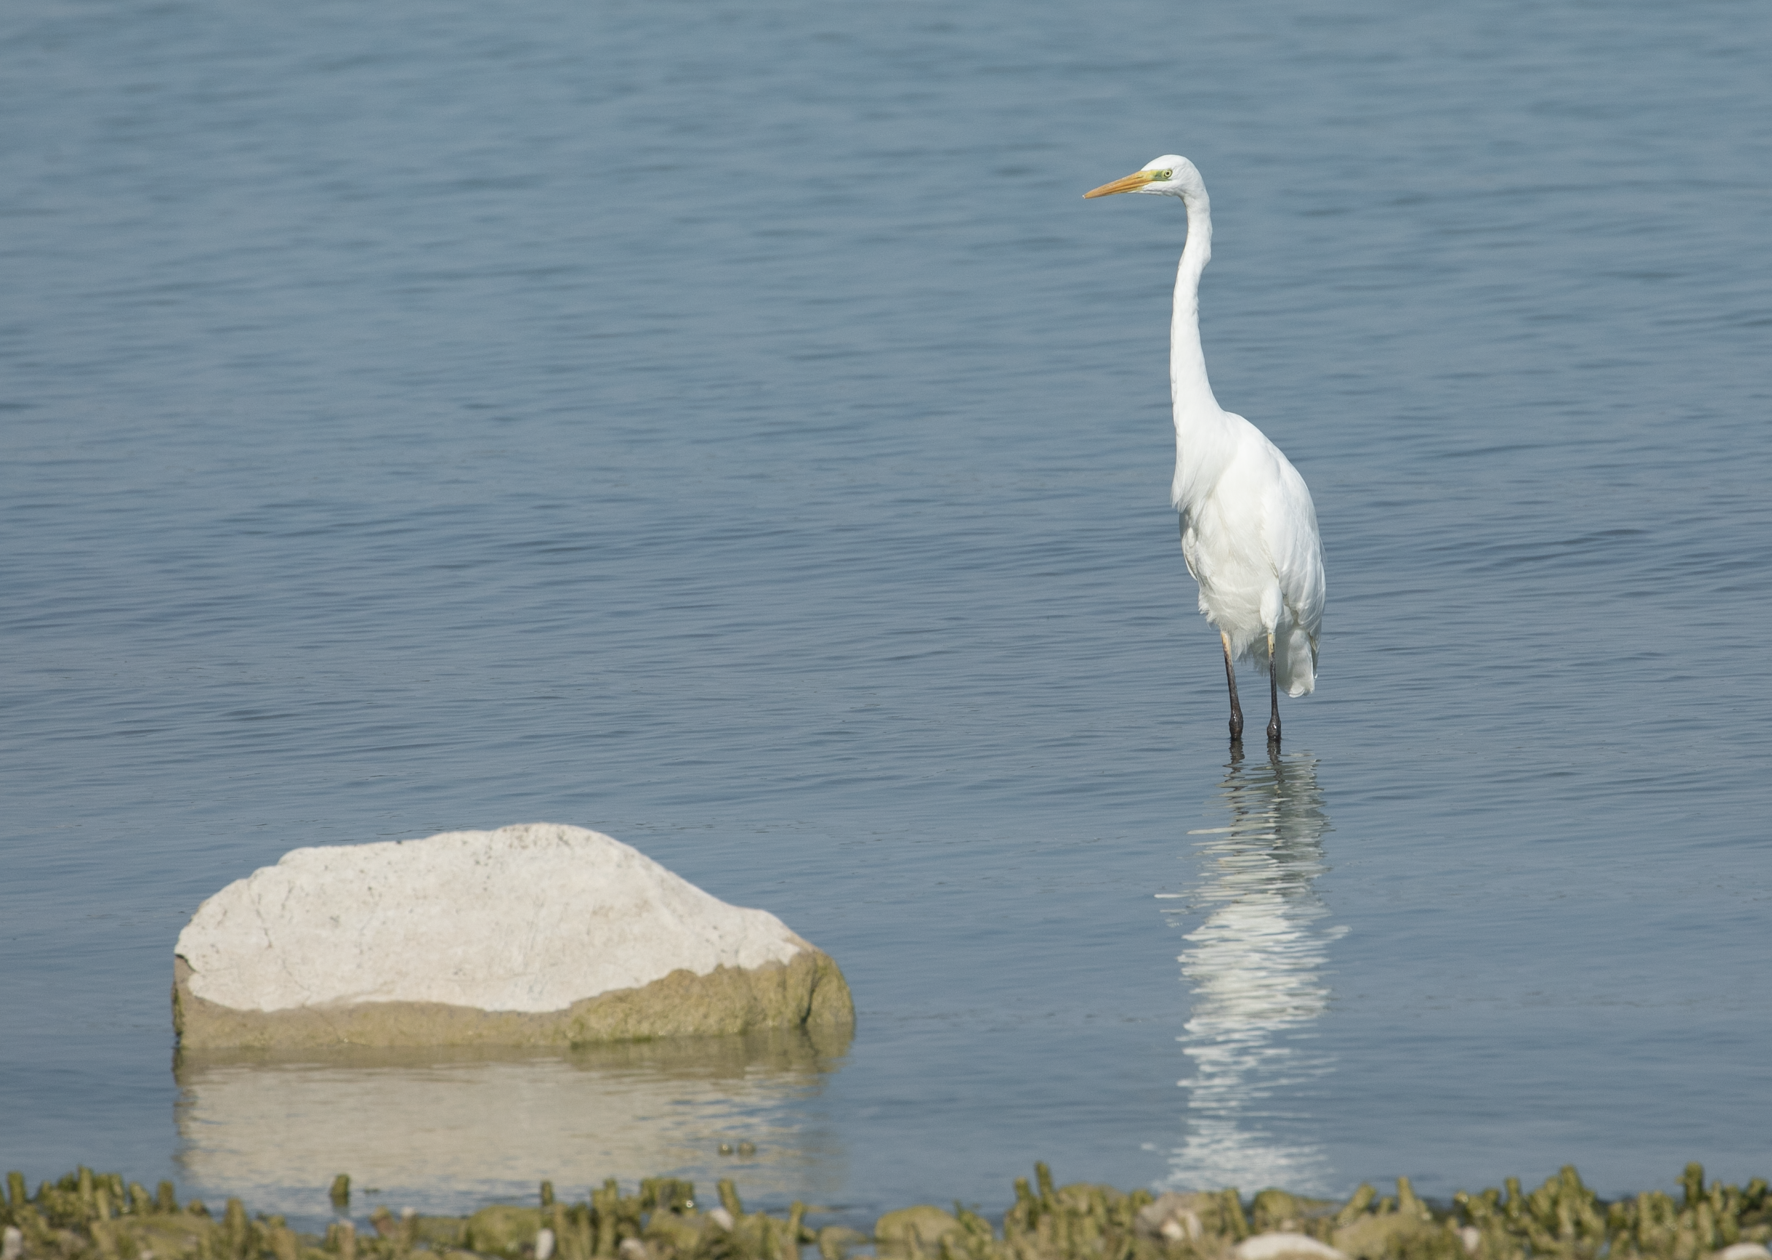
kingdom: Animalia
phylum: Chordata
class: Aves
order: Pelecaniformes
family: Ardeidae
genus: Ardea
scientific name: Ardea alba
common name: Great egret
